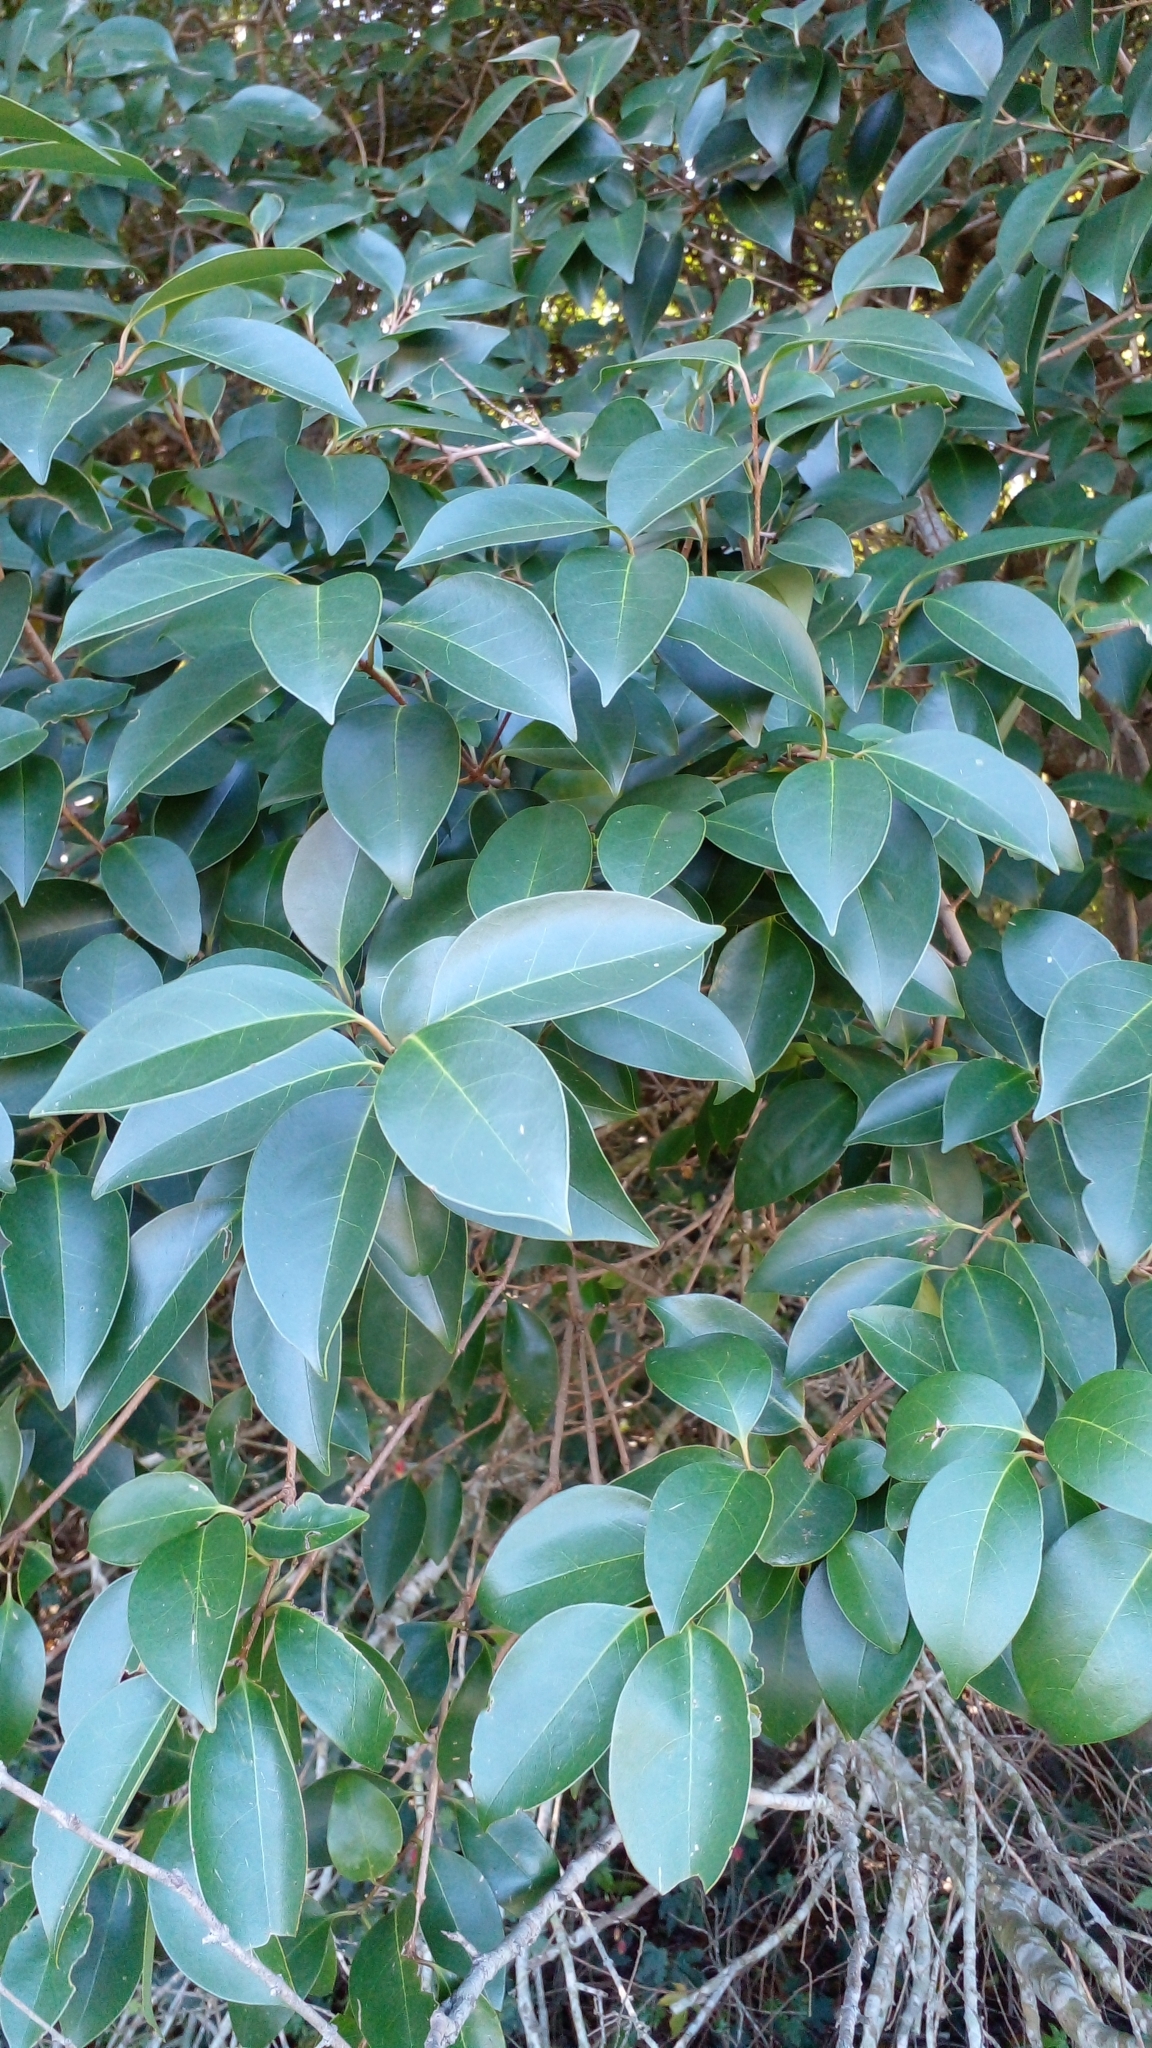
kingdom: Plantae
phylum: Tracheophyta
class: Magnoliopsida
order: Lamiales
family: Oleaceae
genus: Ligustrum
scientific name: Ligustrum lucidum
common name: Glossy privet
